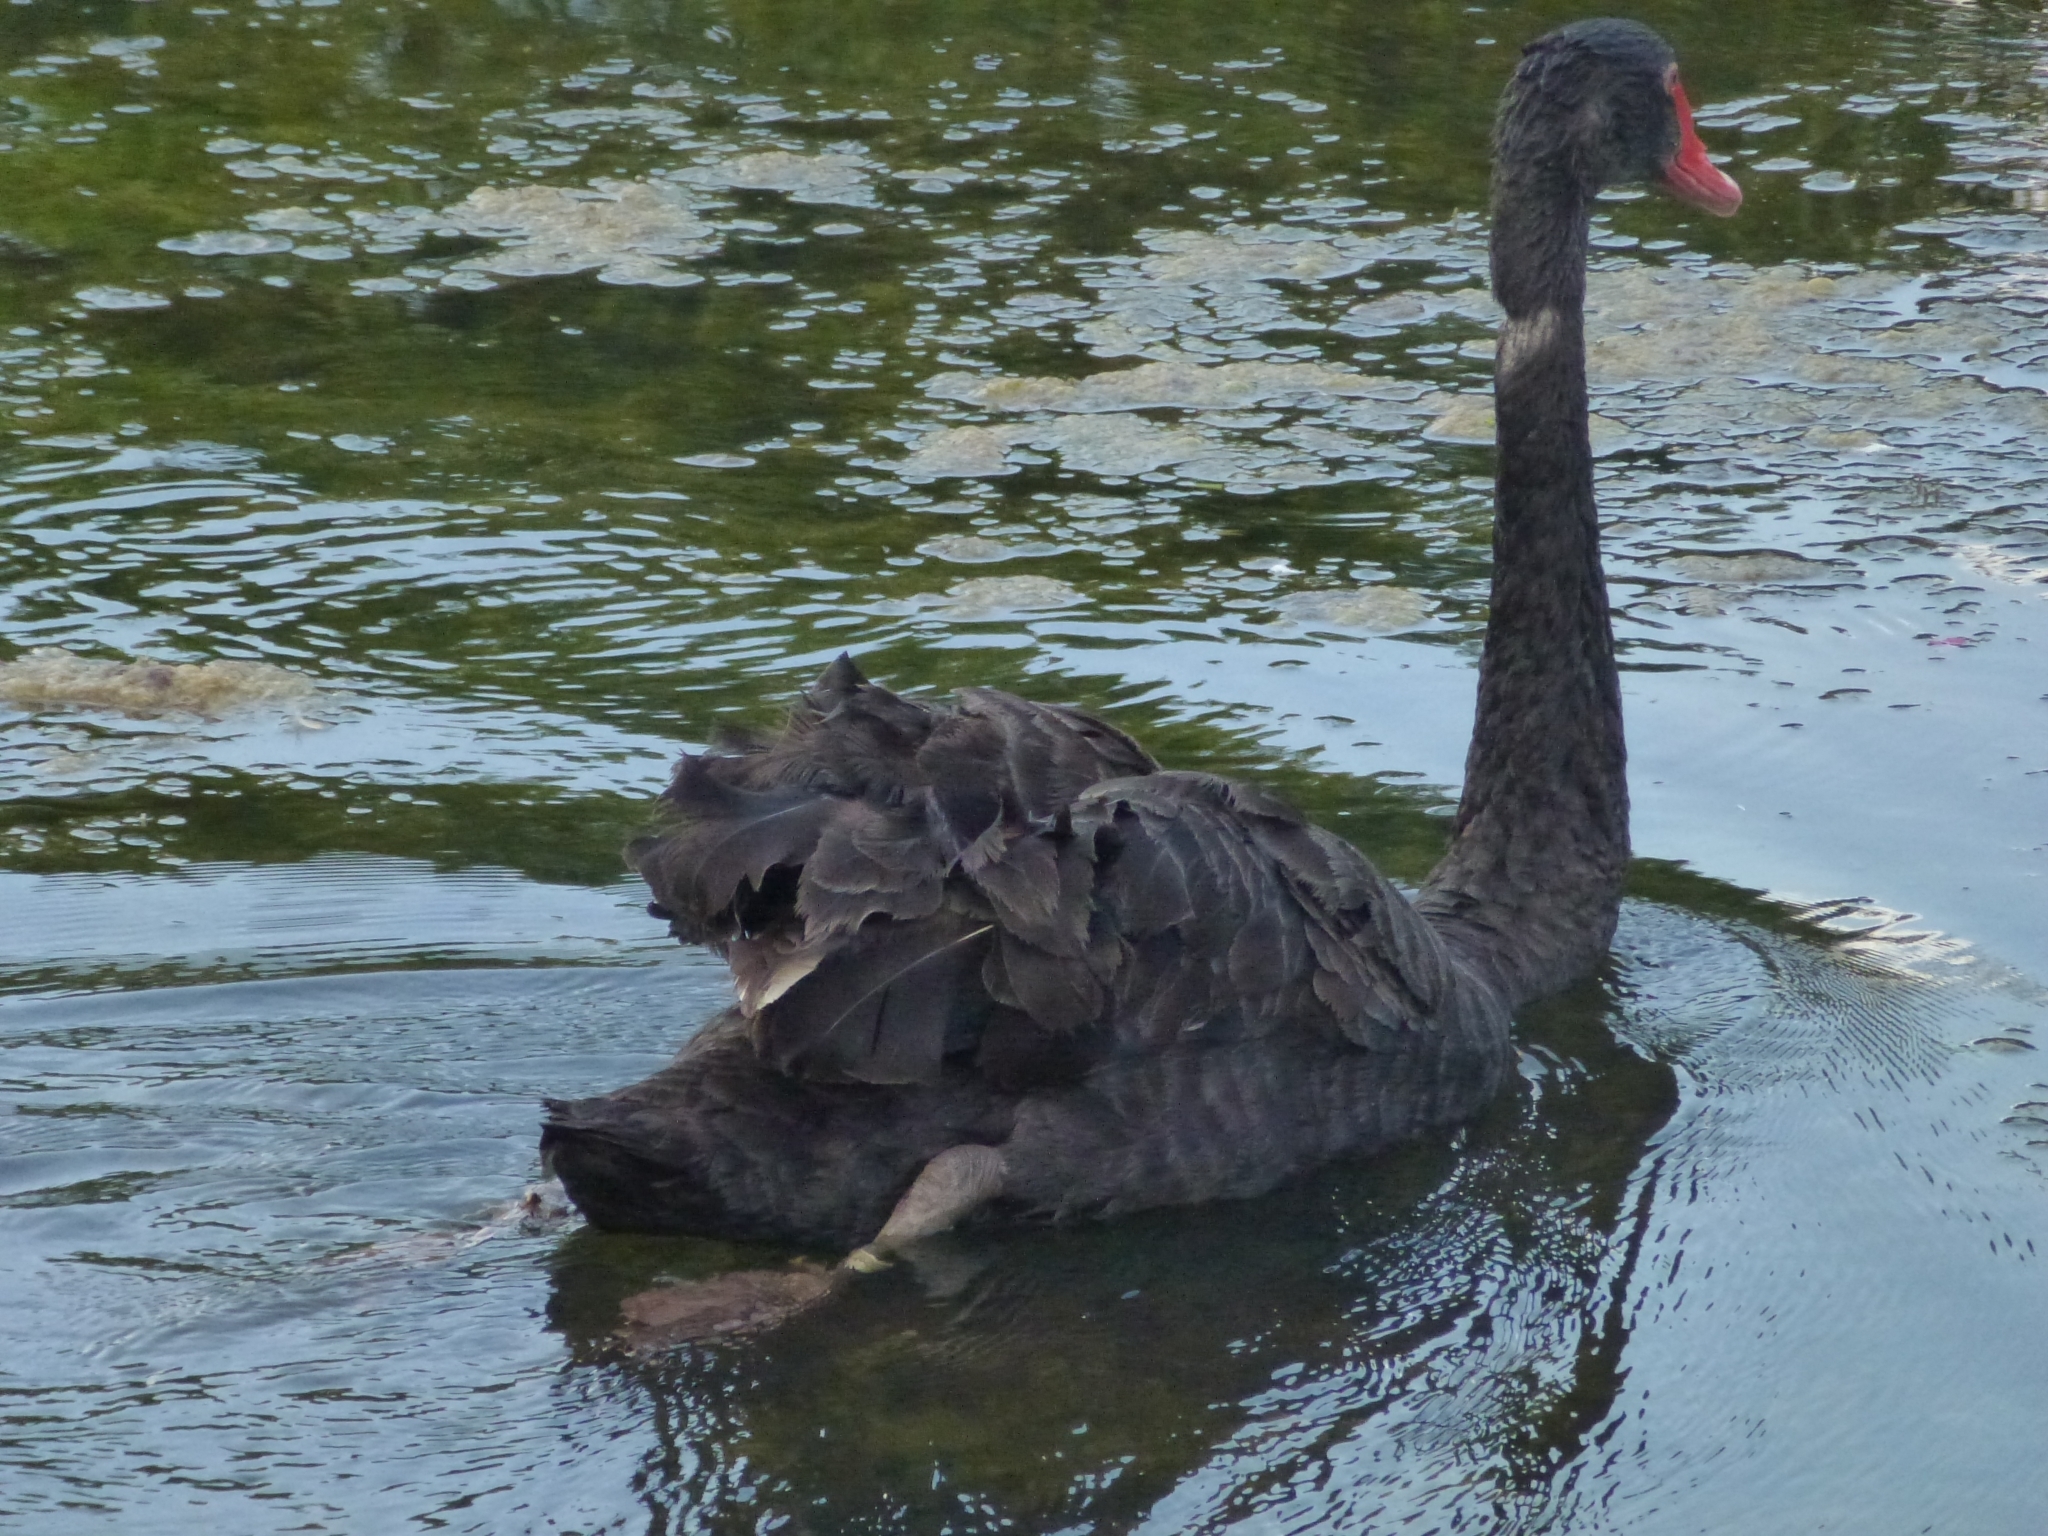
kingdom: Animalia
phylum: Chordata
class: Aves
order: Anseriformes
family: Anatidae
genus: Cygnus
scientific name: Cygnus atratus
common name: Black swan
